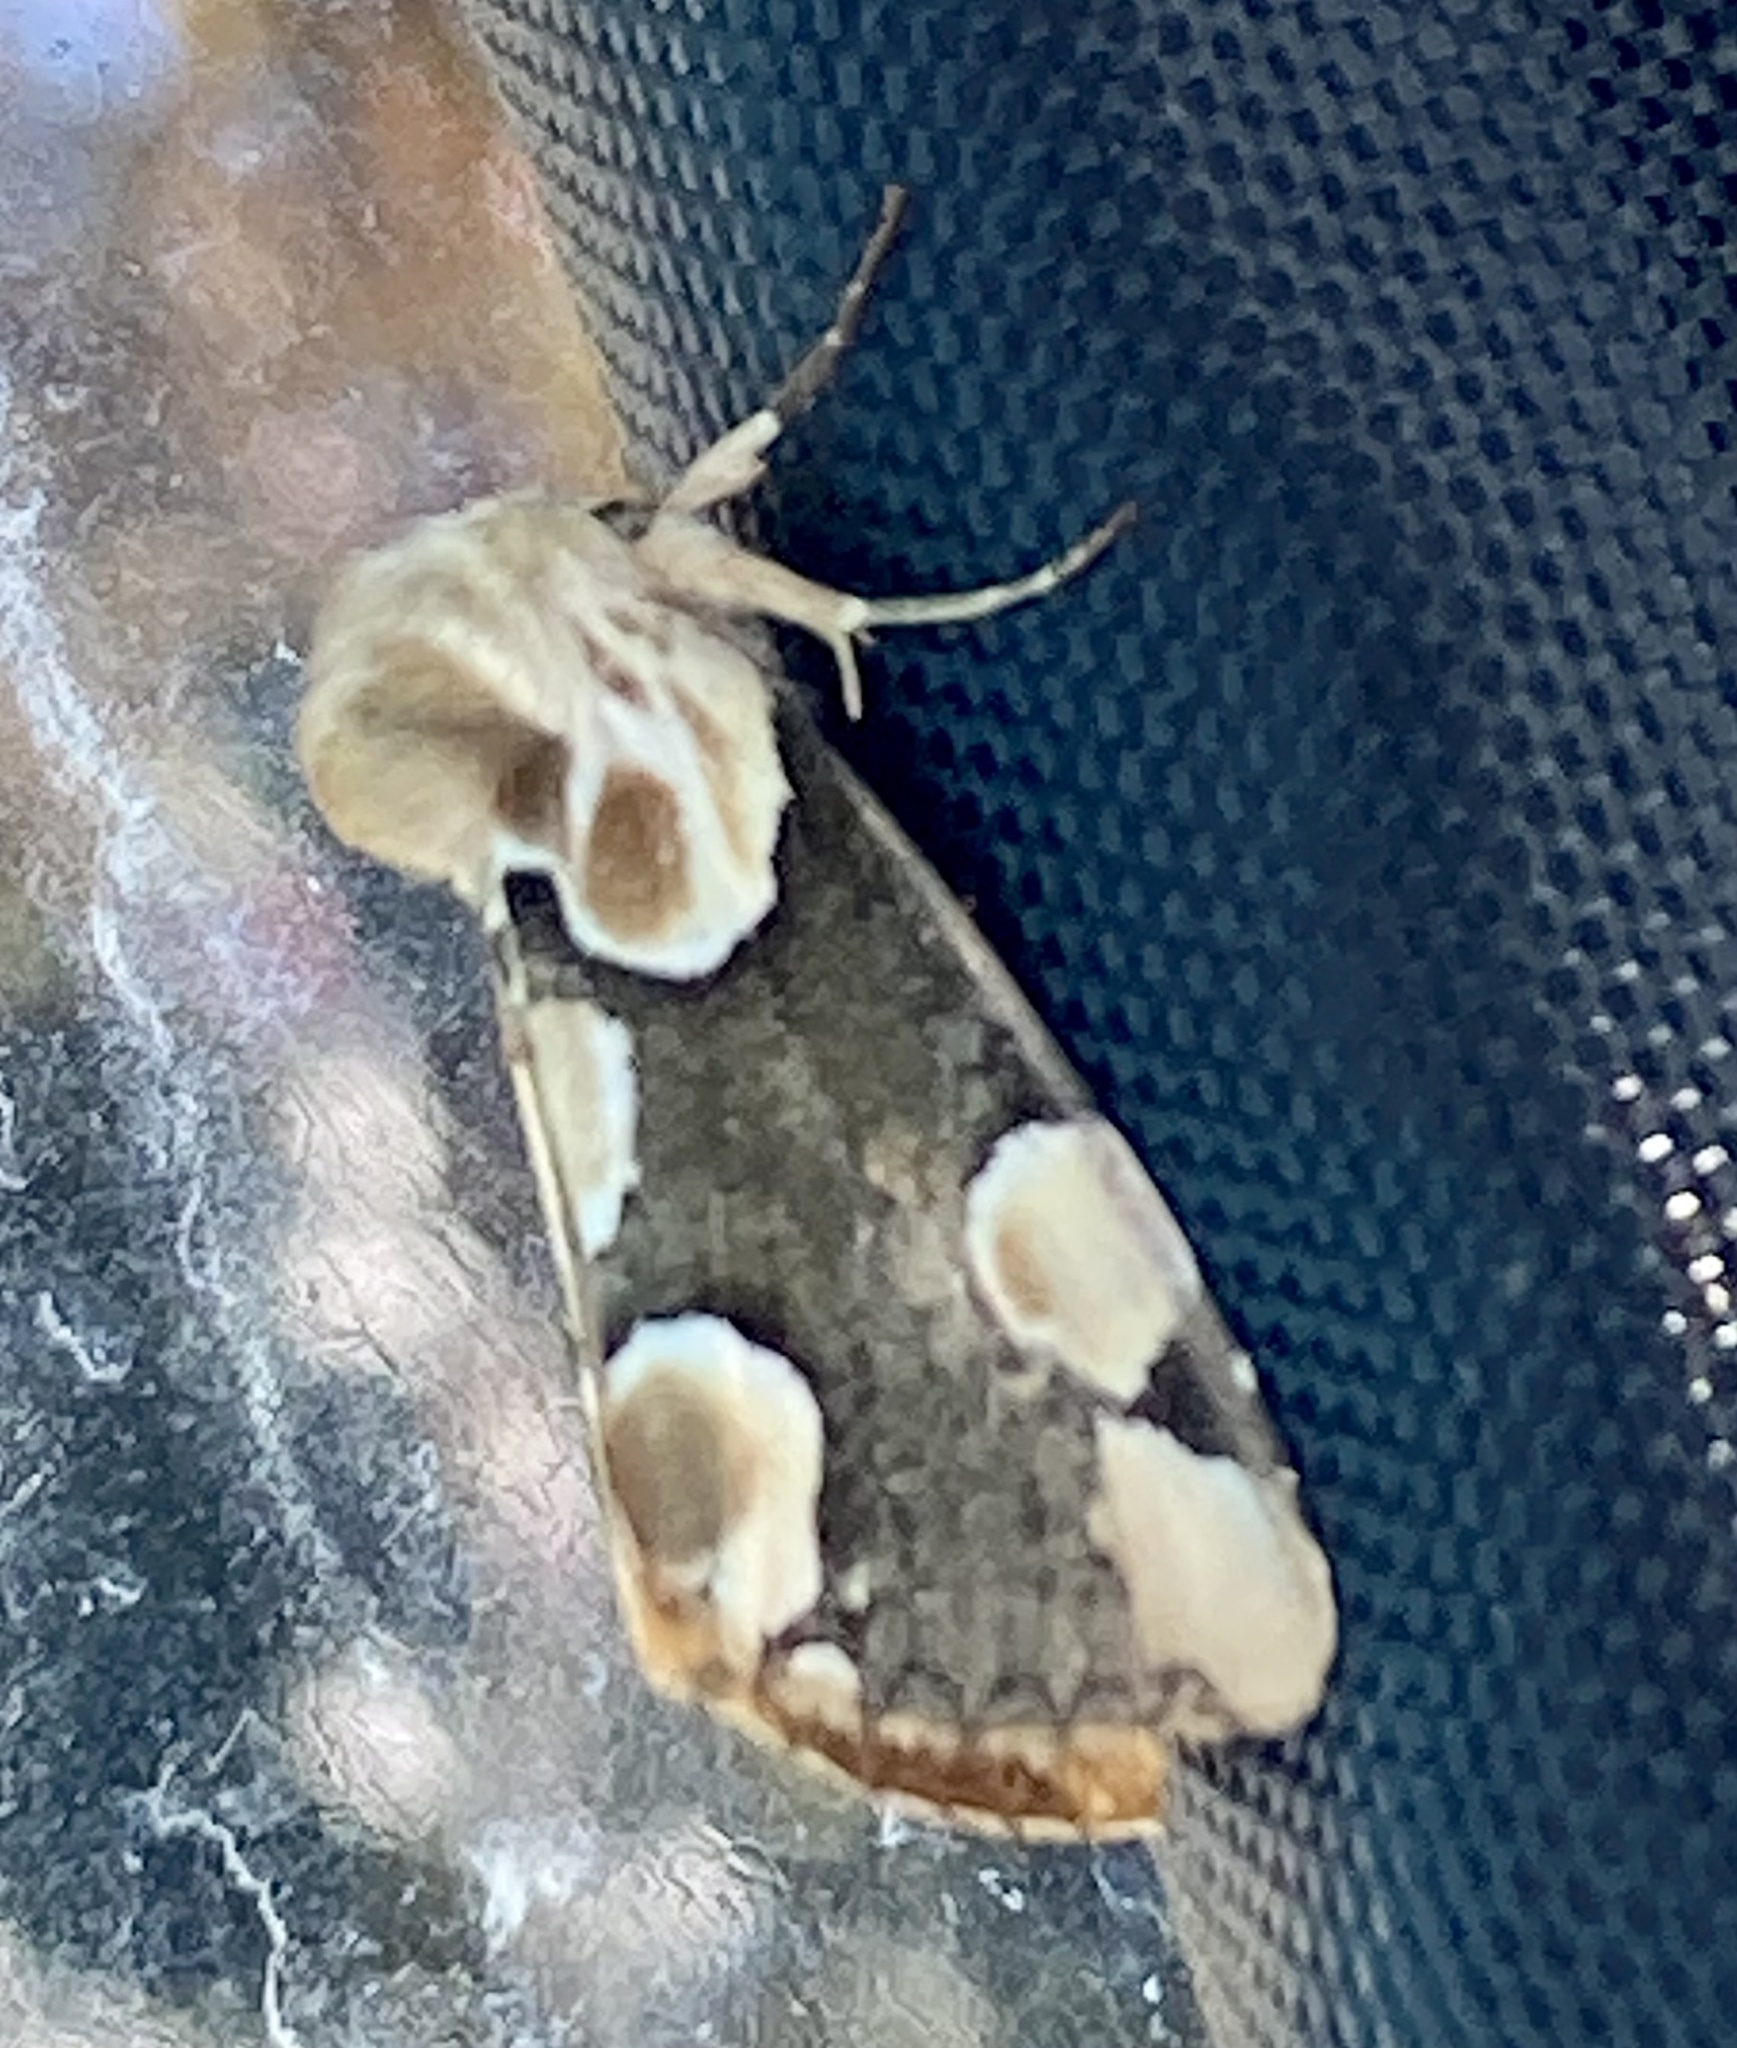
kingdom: Animalia
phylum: Arthropoda
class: Insecta
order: Lepidoptera
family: Drepanidae
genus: Thyatira
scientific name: Thyatira batis
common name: Peach blossom
